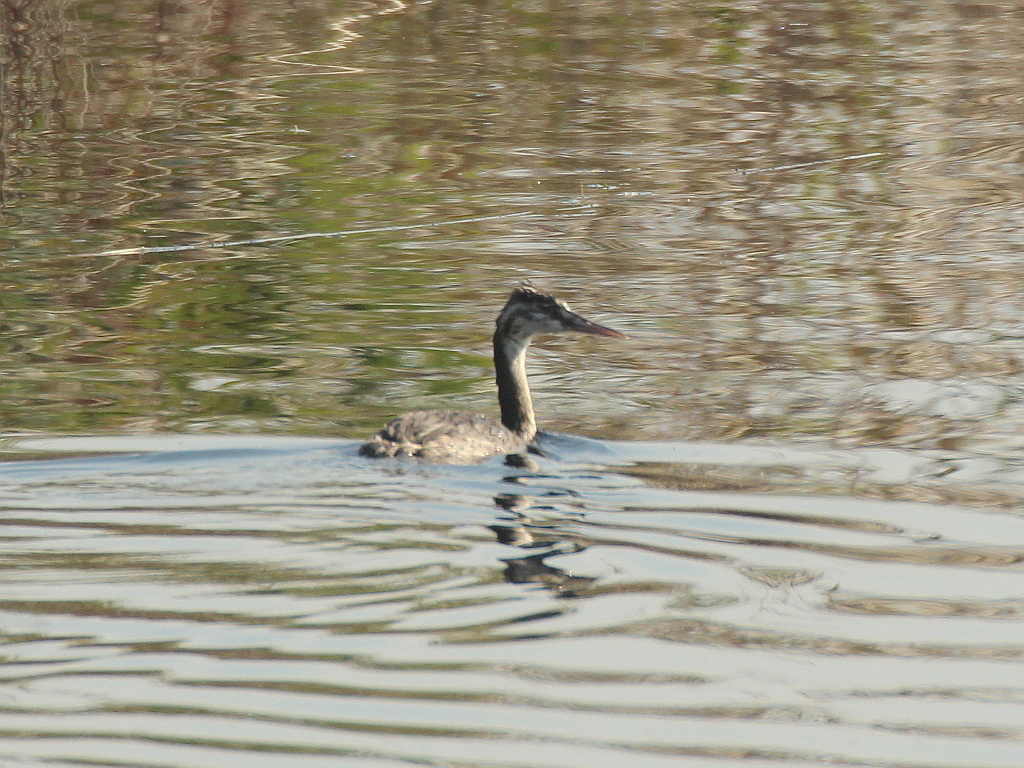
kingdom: Animalia
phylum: Chordata
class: Aves
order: Podicipediformes
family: Podicipedidae
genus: Podiceps
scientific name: Podiceps cristatus
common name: Great crested grebe
